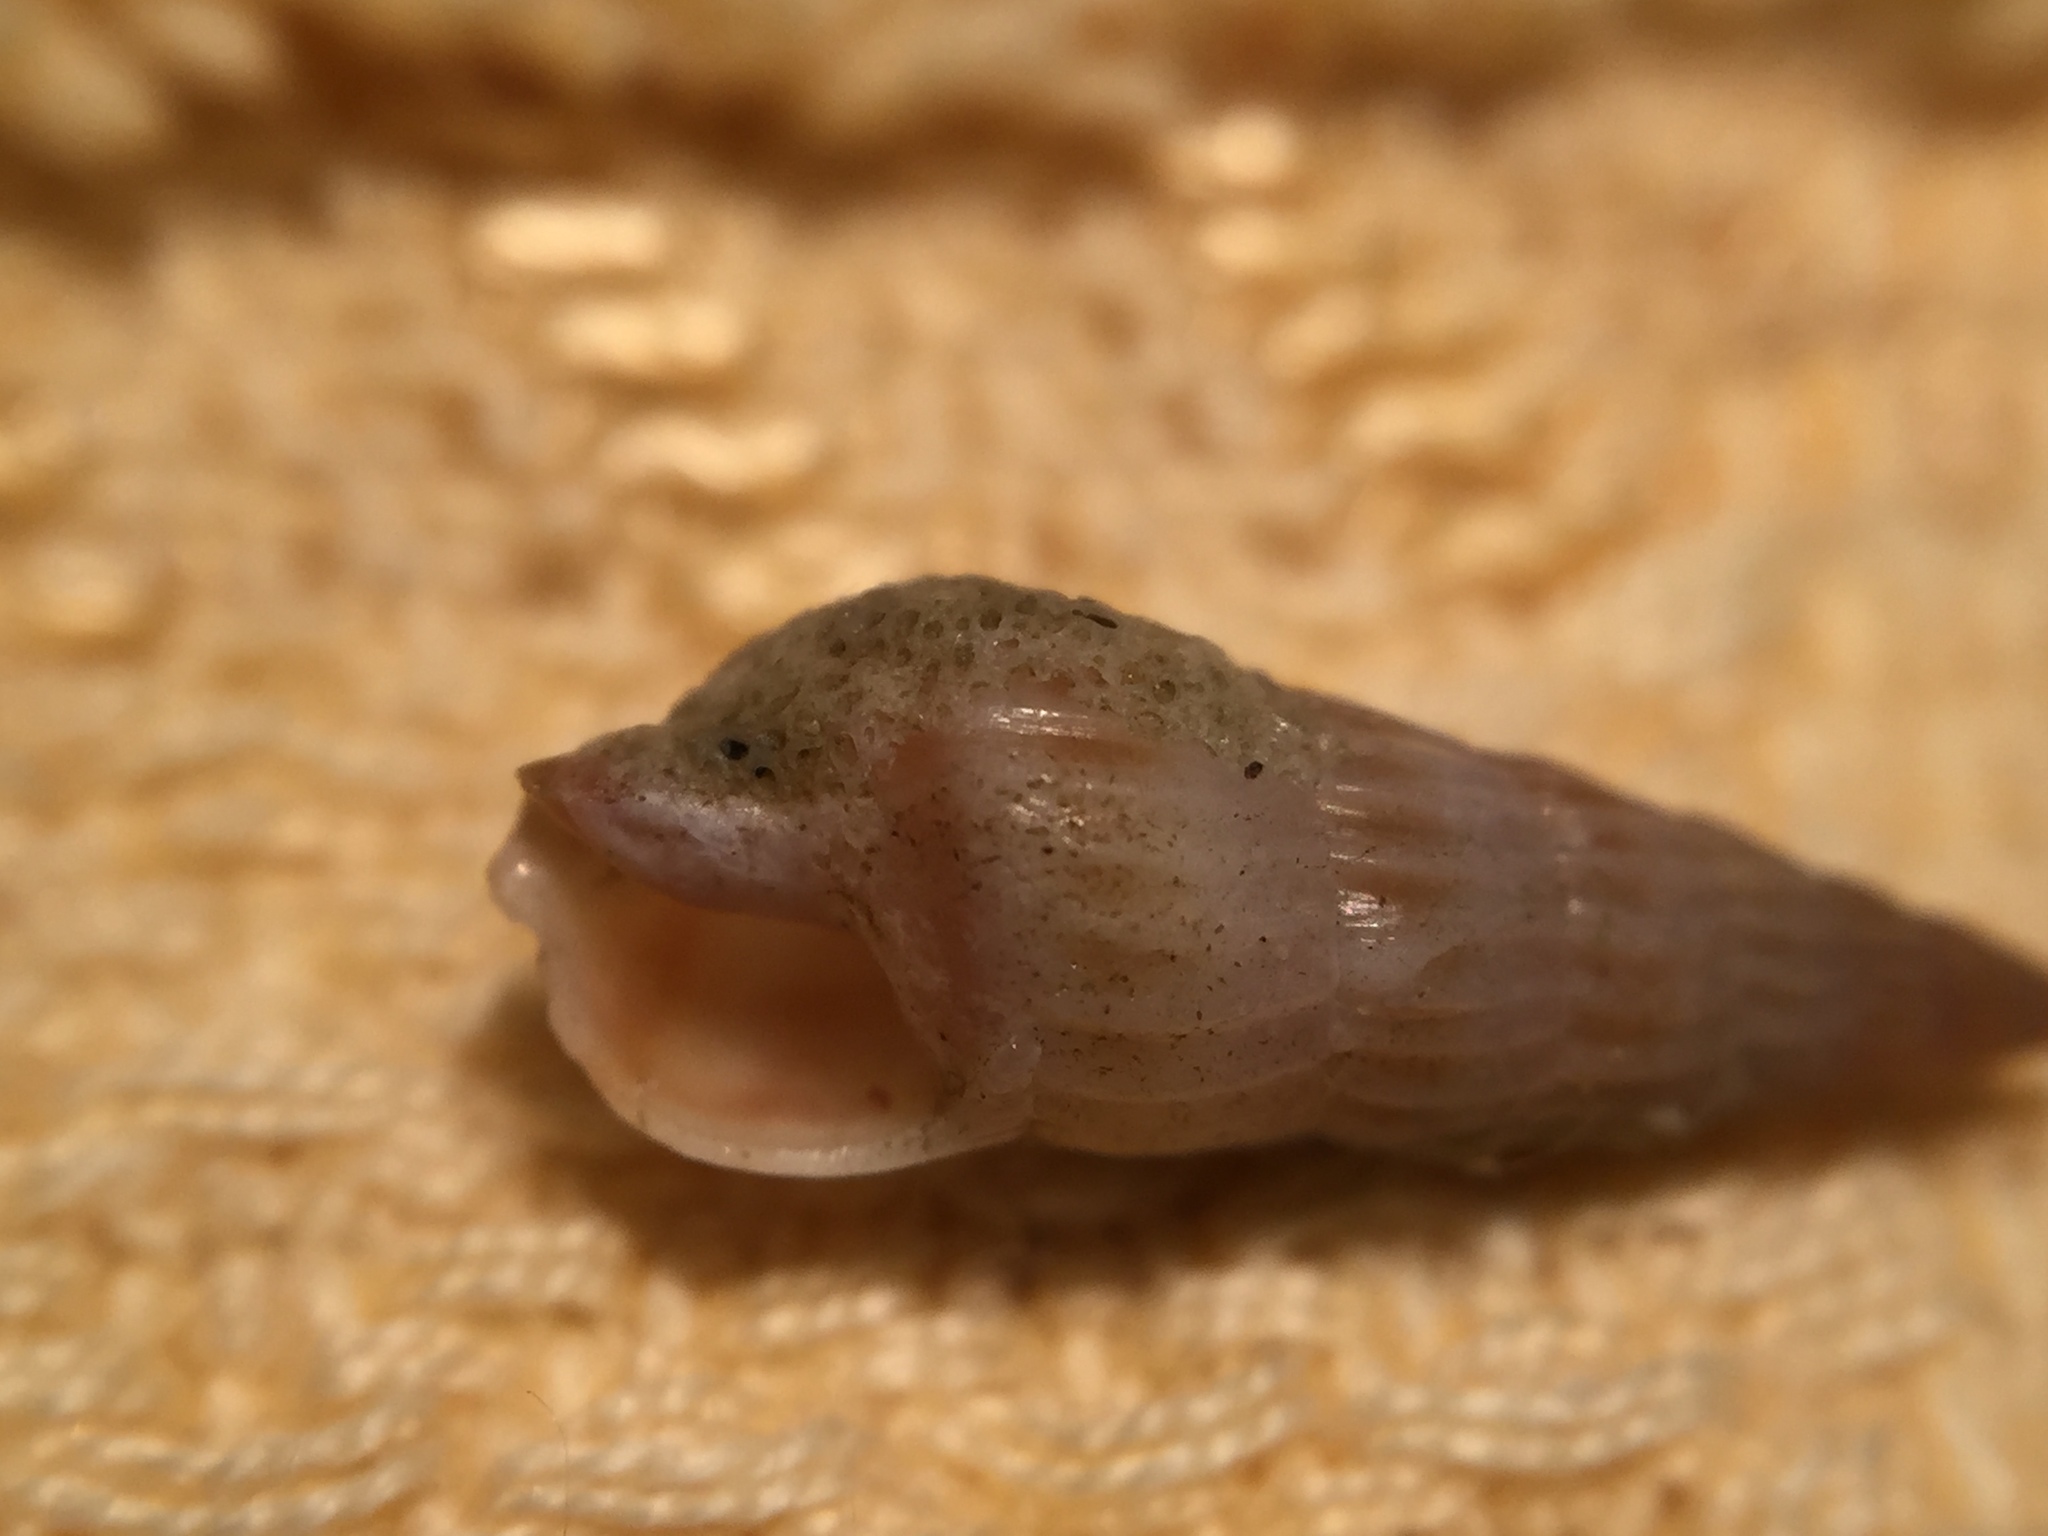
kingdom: Animalia
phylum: Mollusca
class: Gastropoda
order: Neogastropoda
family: Terebridae
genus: Duplicaria
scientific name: Duplicaria tristis
